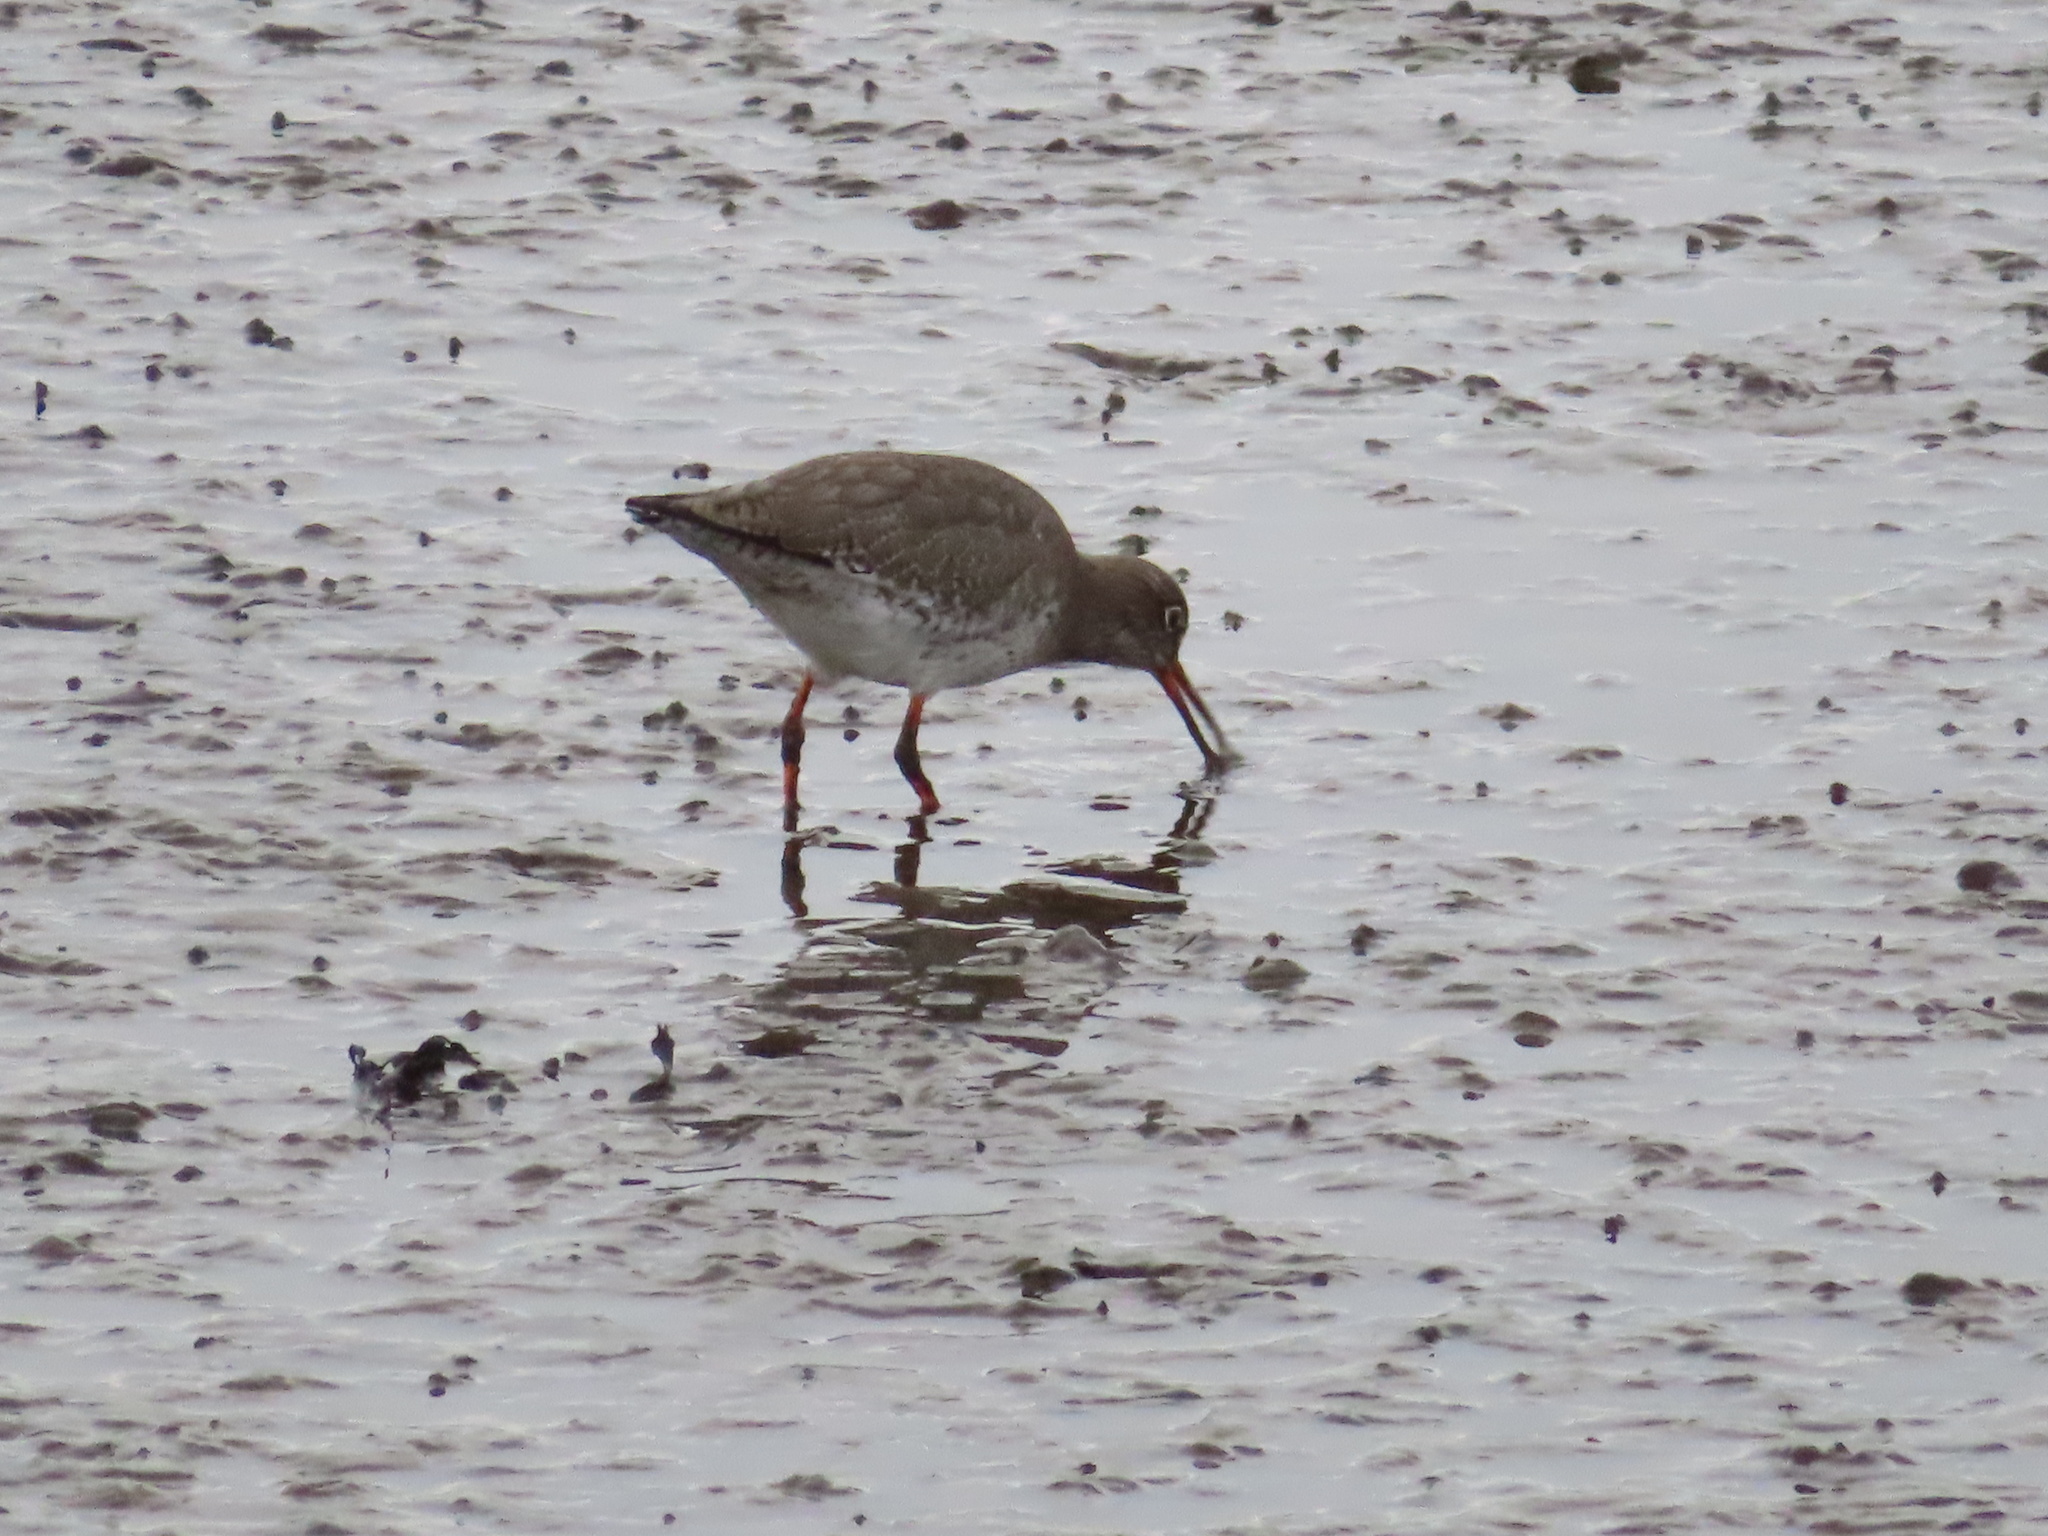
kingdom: Animalia
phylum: Chordata
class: Aves
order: Charadriiformes
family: Scolopacidae
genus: Tringa
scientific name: Tringa totanus
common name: Common redshank
